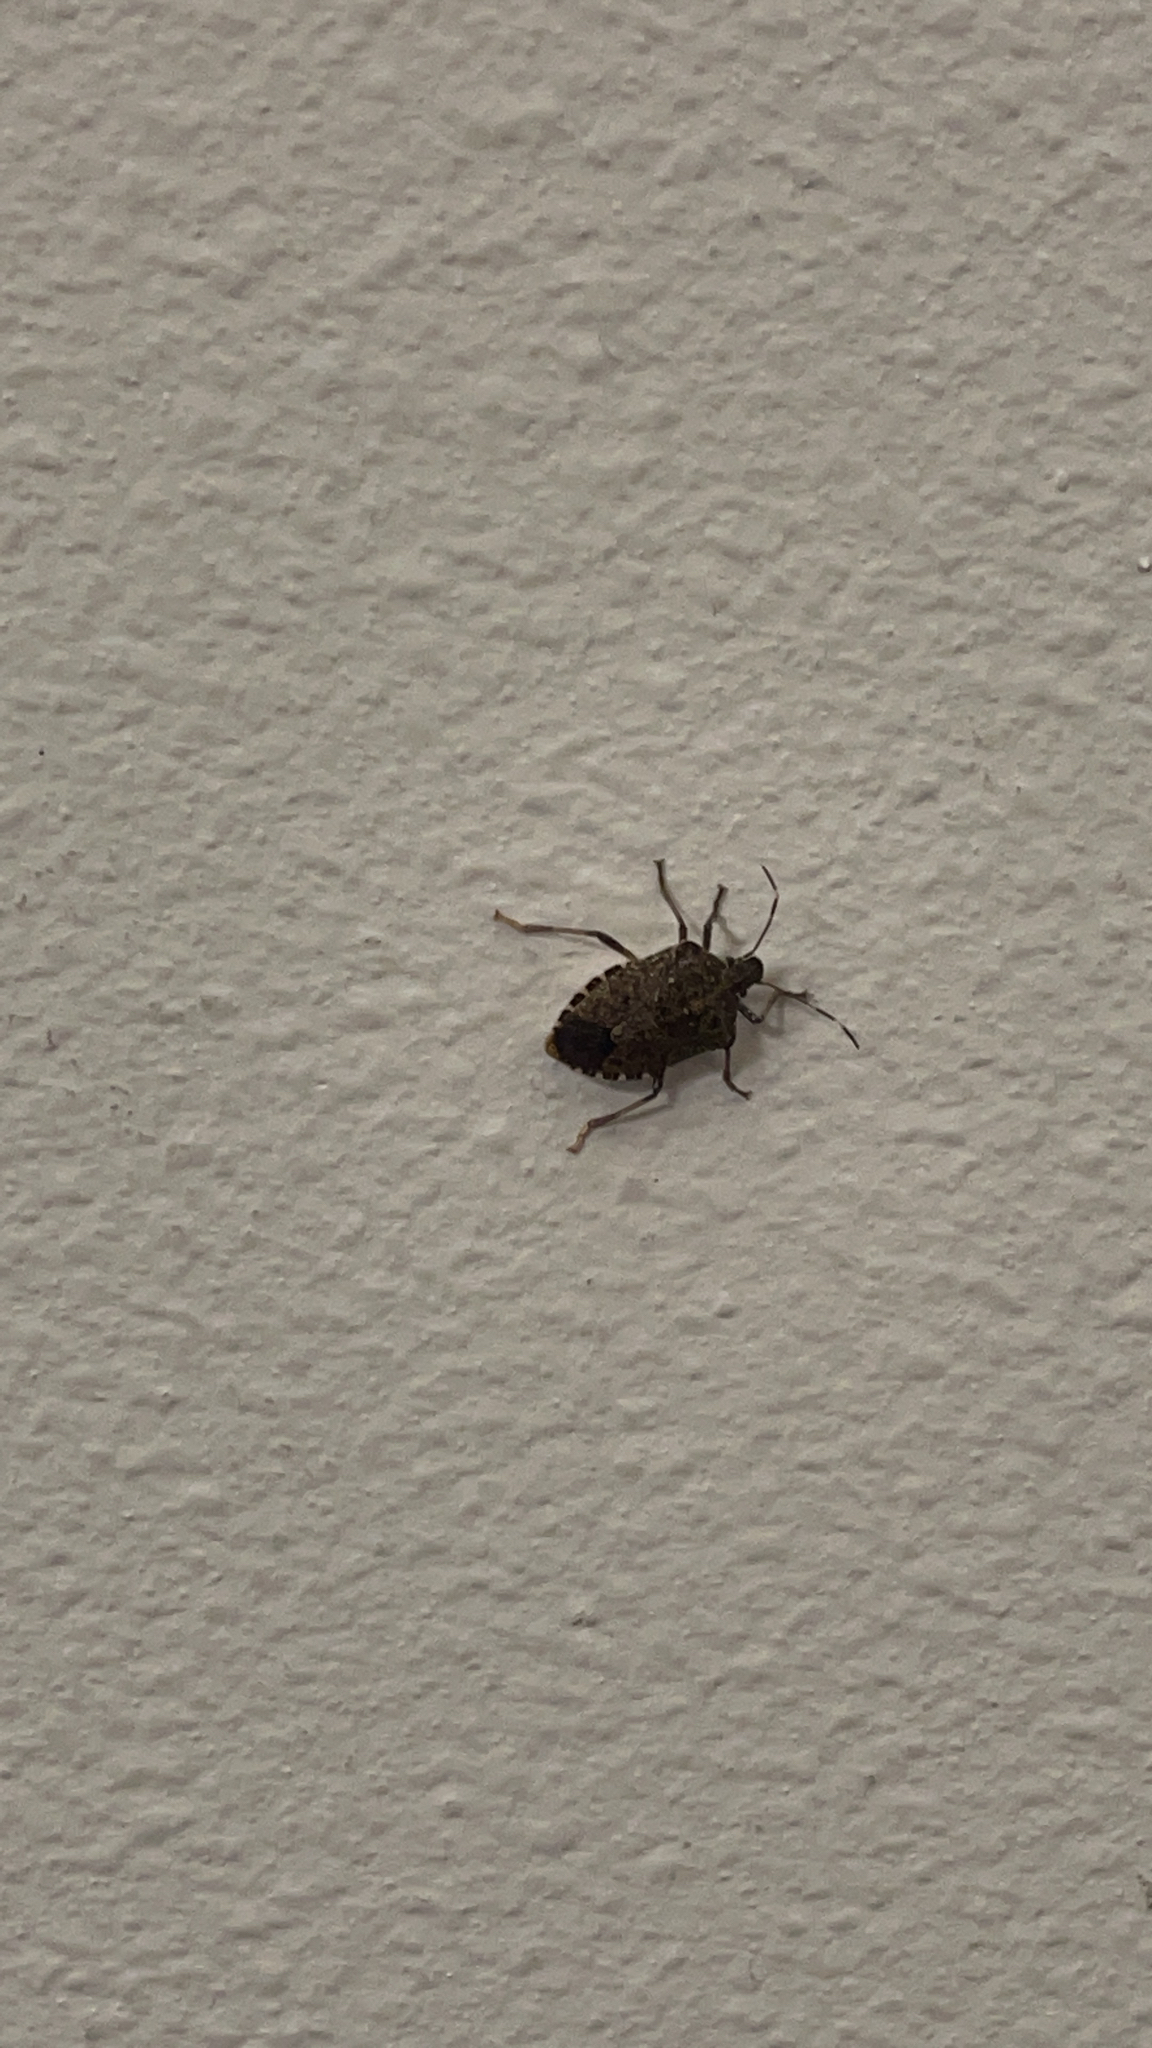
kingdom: Animalia
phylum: Arthropoda
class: Insecta
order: Hemiptera
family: Pentatomidae
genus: Halyomorpha
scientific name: Halyomorpha halys
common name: Brown marmorated stink bug
